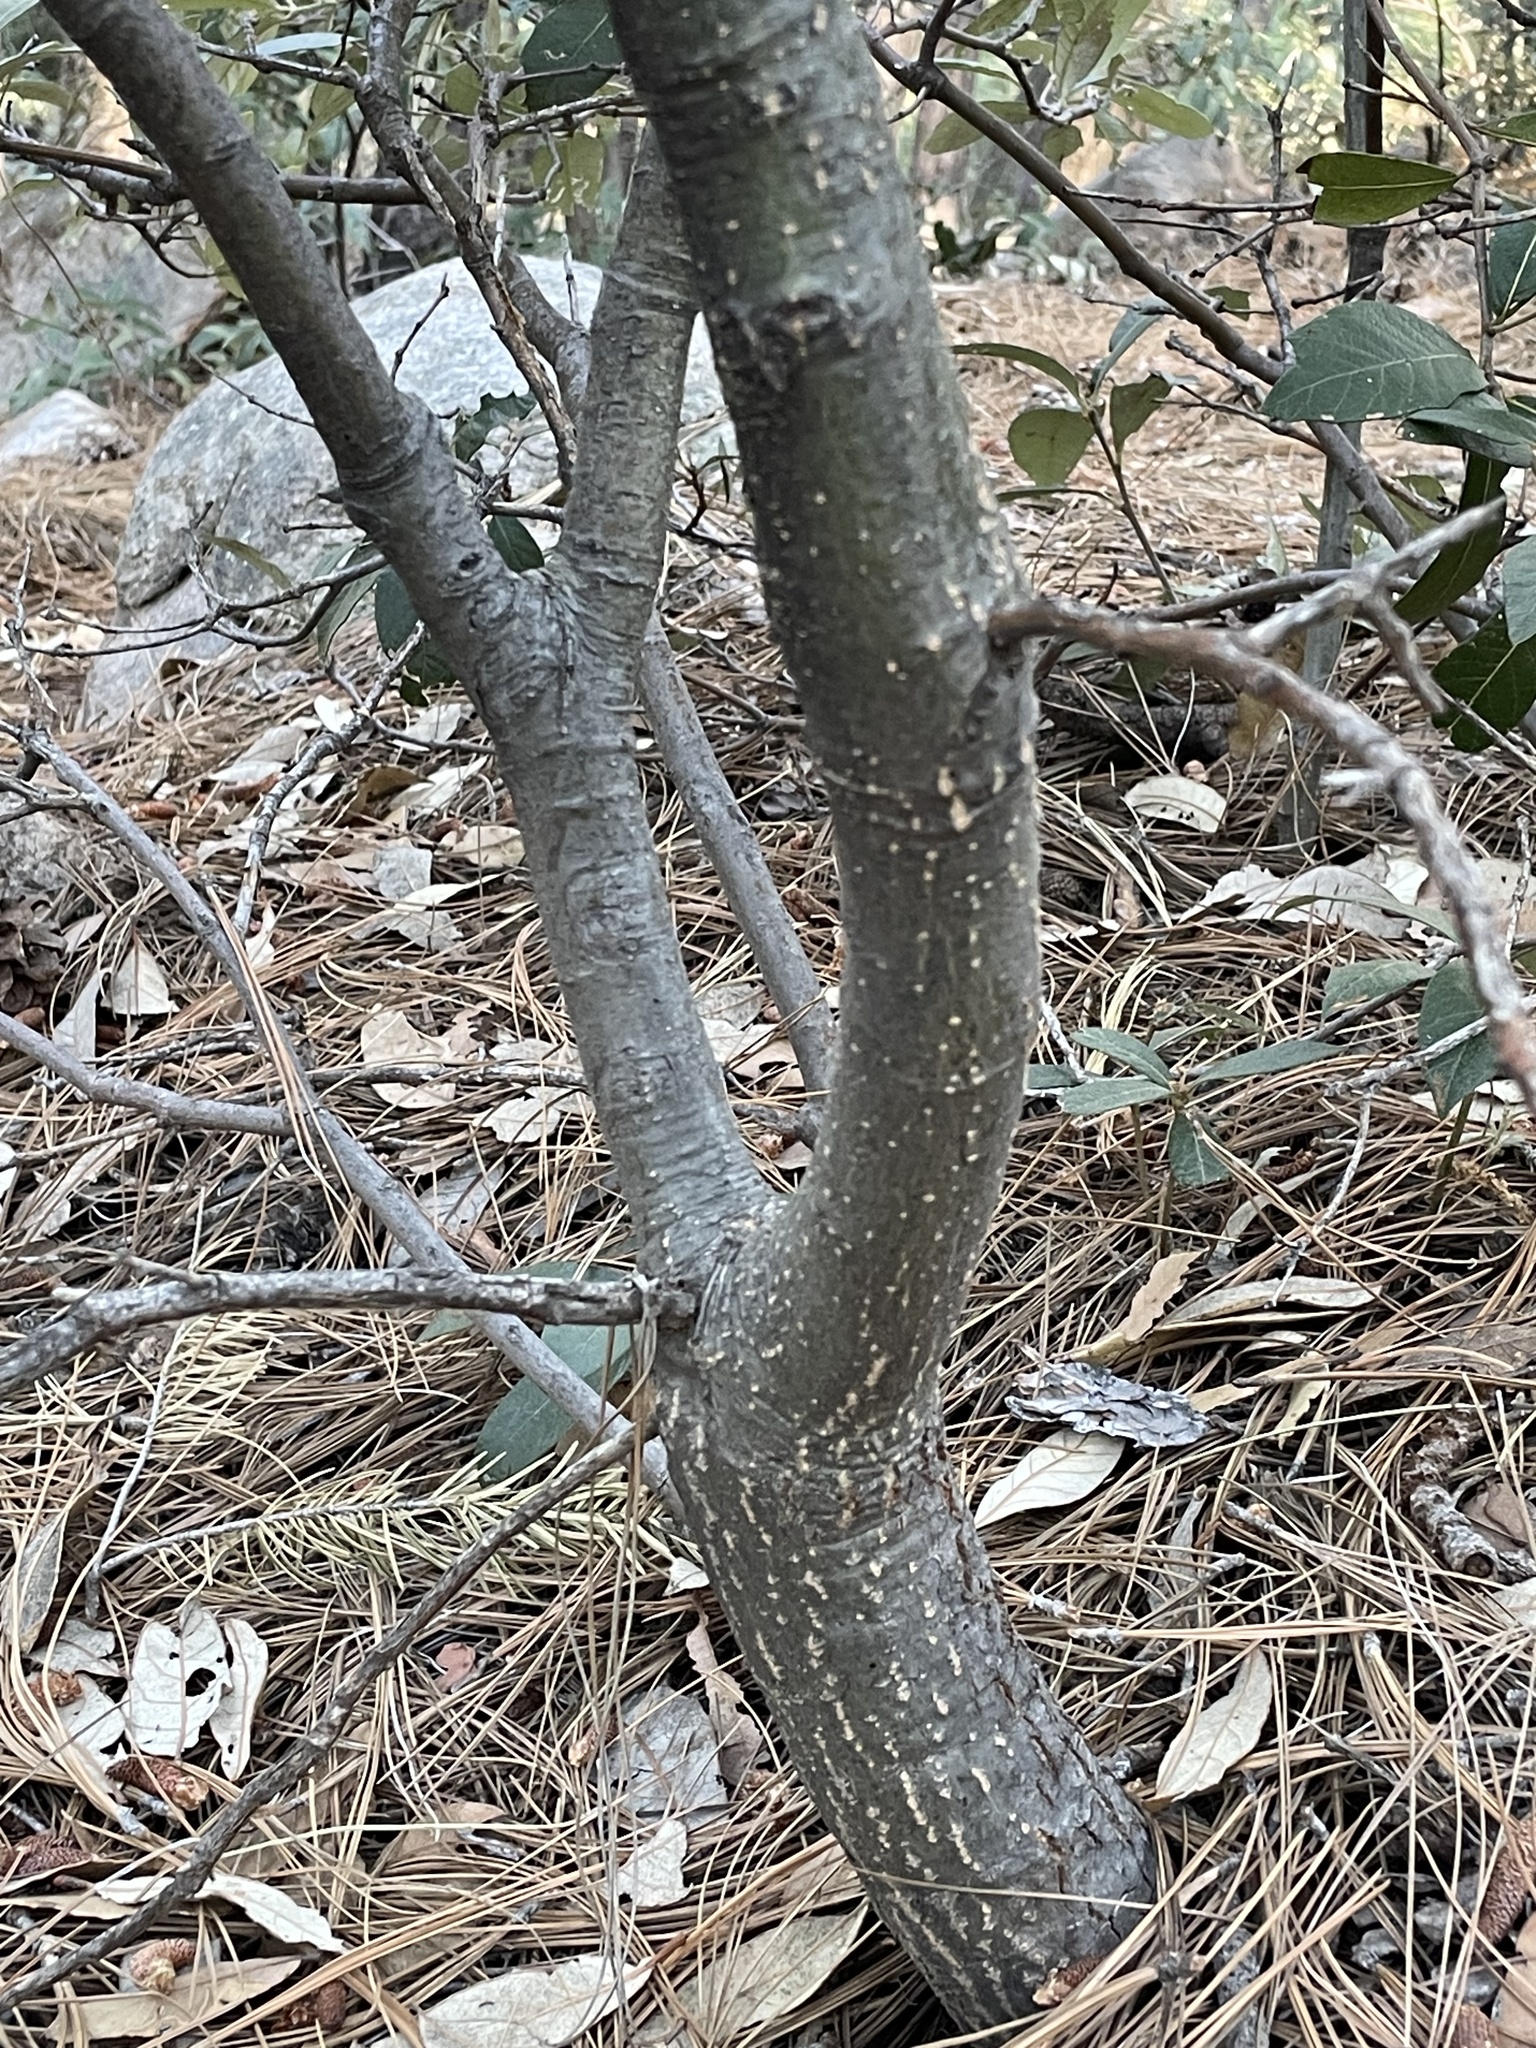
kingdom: Plantae
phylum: Tracheophyta
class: Magnoliopsida
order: Fagales
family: Fagaceae
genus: Quercus
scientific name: Quercus hypoleucoides
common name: Silverleaf oak
